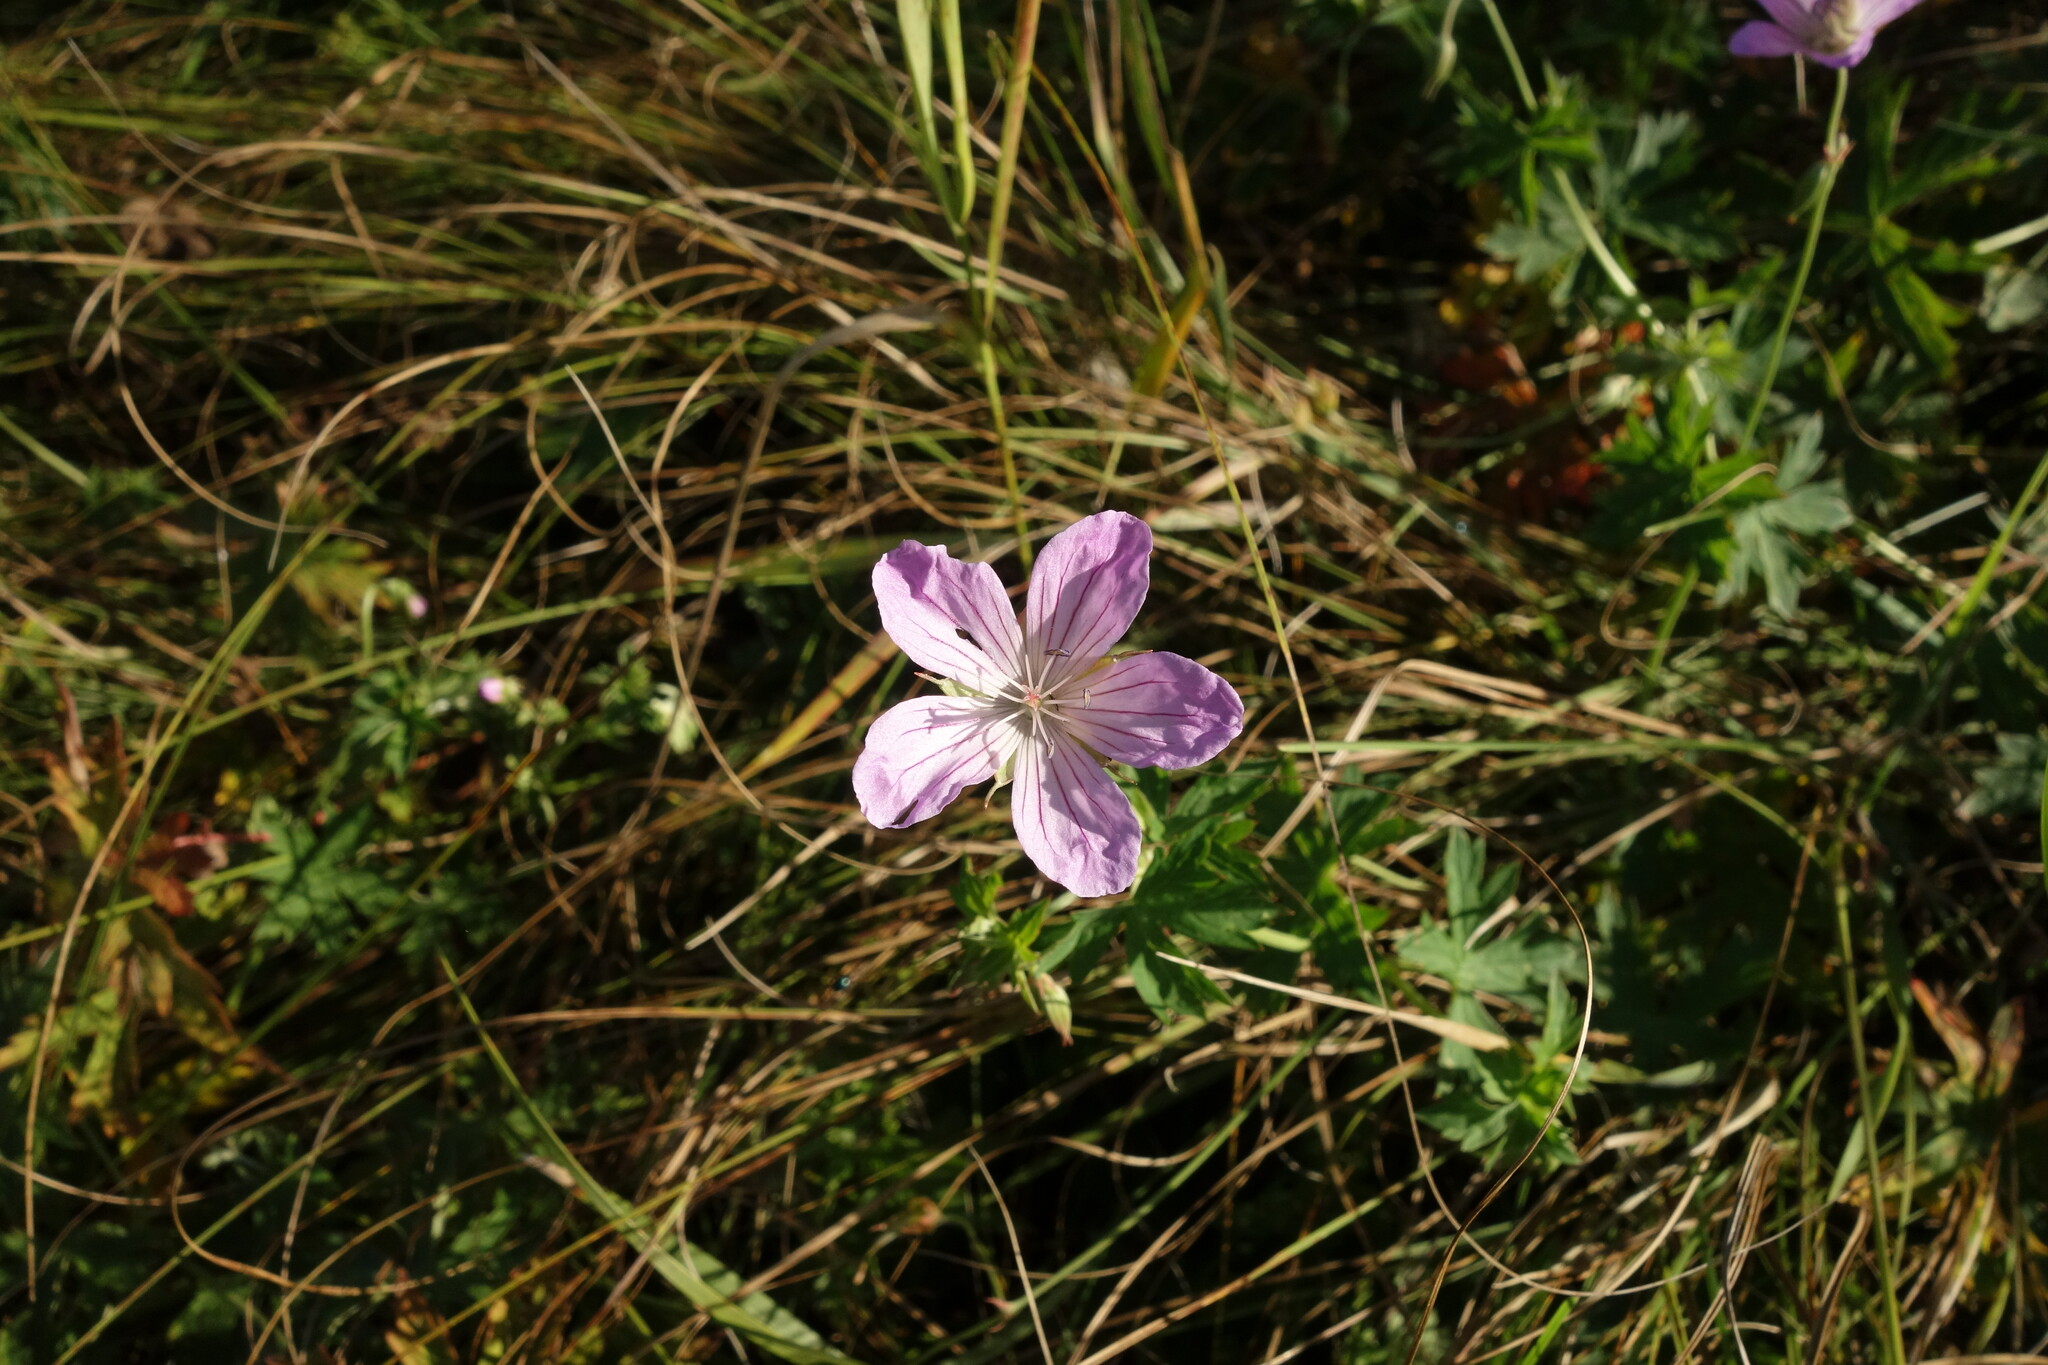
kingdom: Plantae
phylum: Tracheophyta
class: Magnoliopsida
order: Geraniales
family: Geraniaceae
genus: Geranium
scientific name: Geranium collinum
